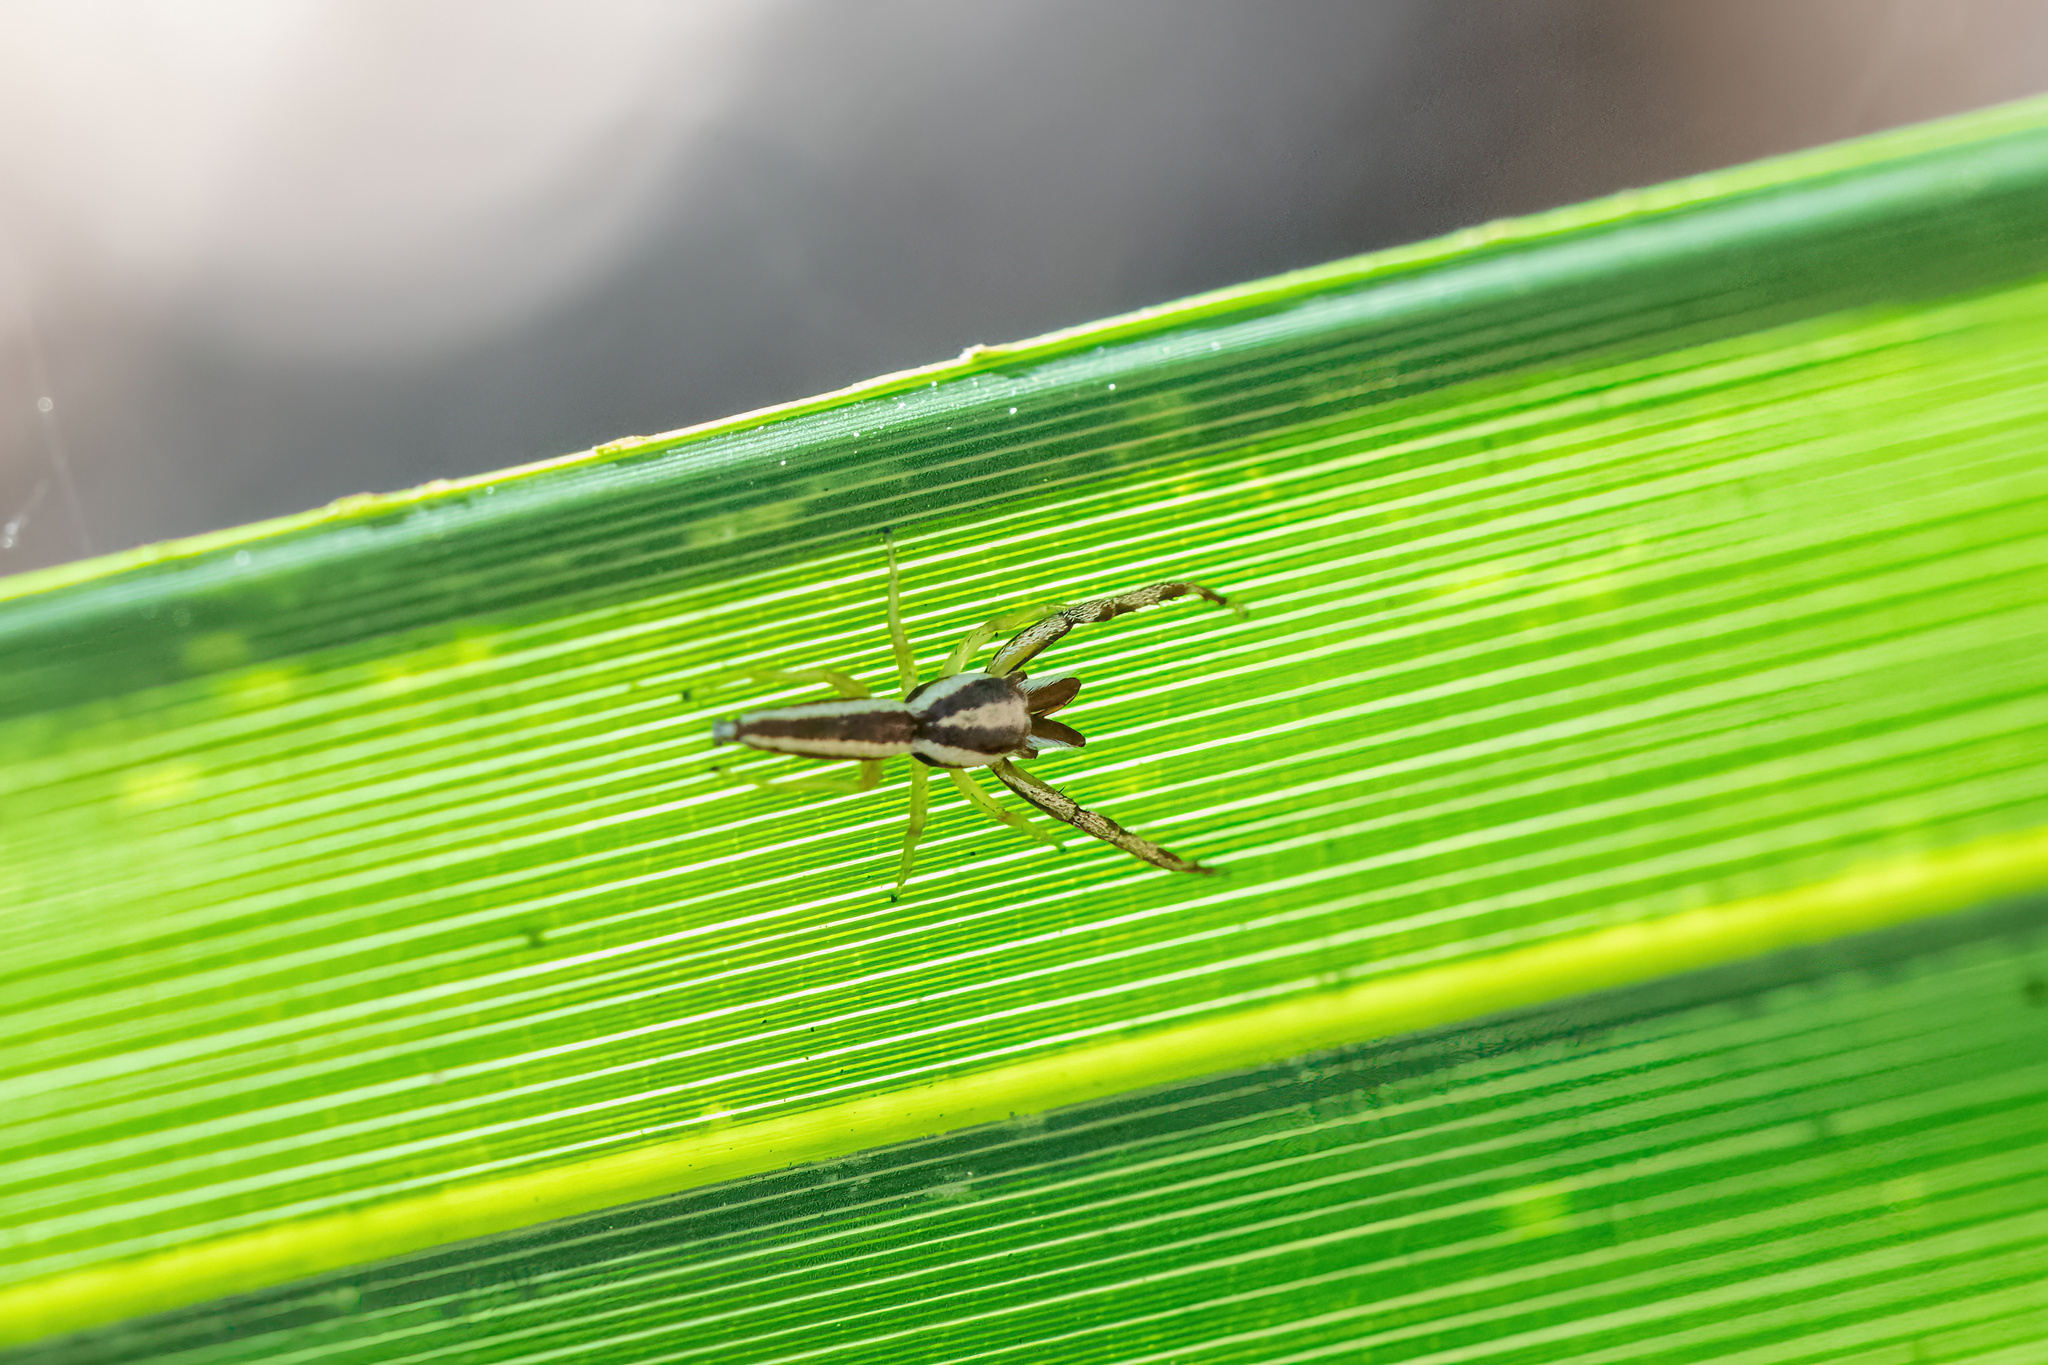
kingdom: Animalia
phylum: Arthropoda
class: Arachnida
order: Araneae
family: Salticidae
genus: Hentzia
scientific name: Hentzia grenada
